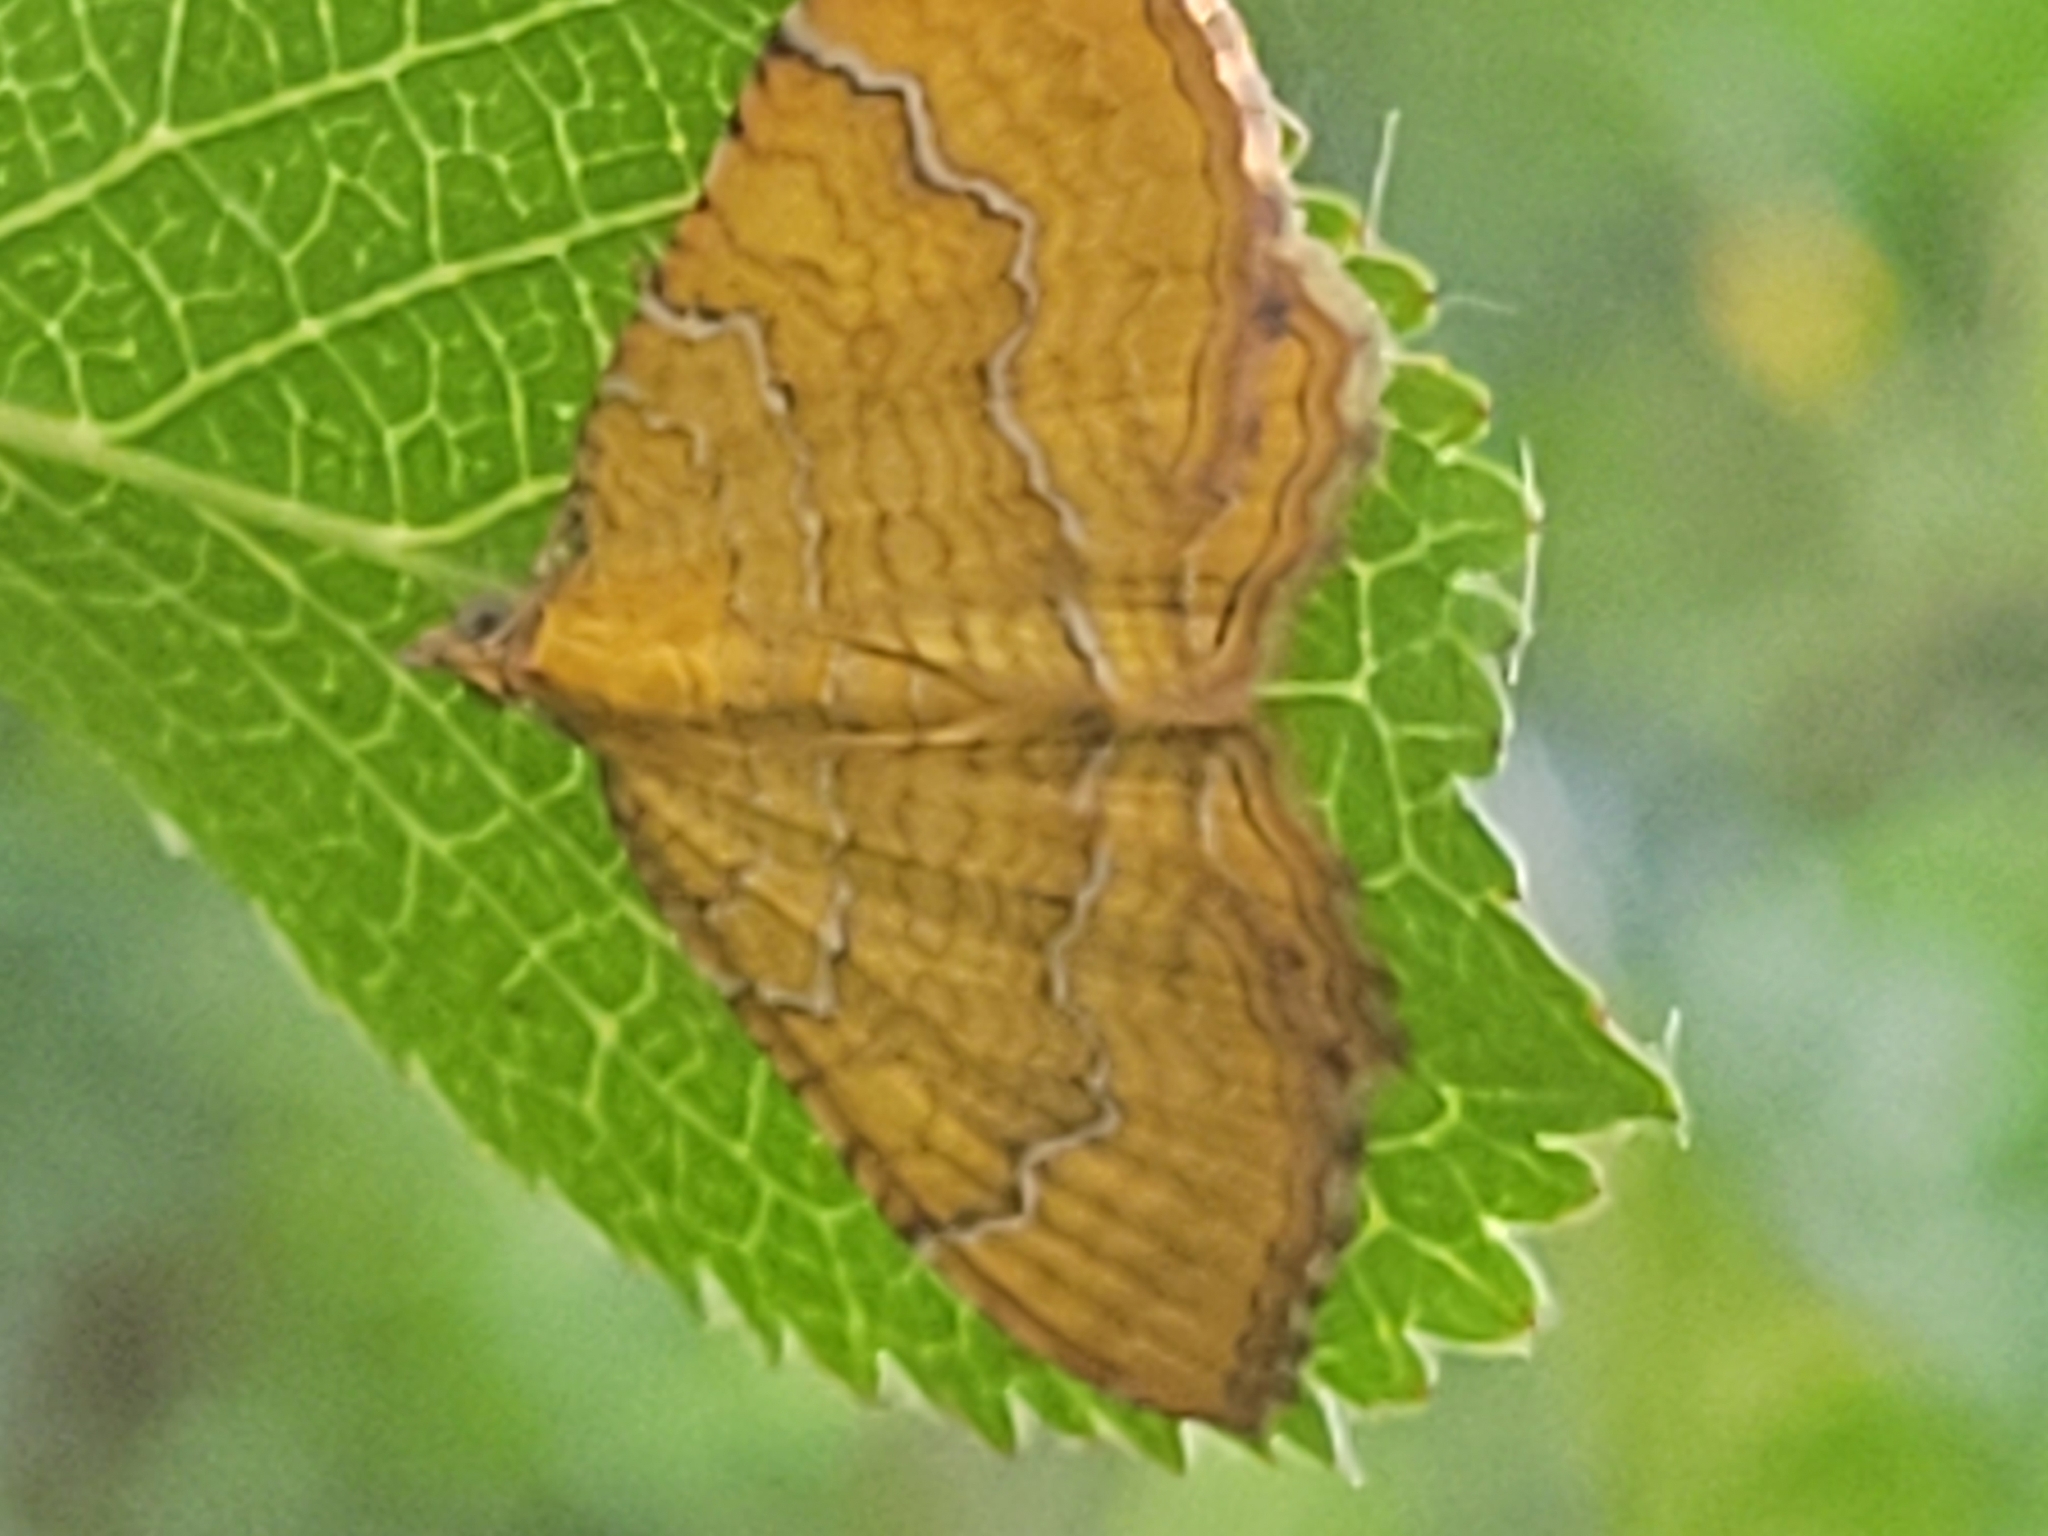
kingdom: Animalia
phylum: Arthropoda
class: Insecta
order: Lepidoptera
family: Geometridae
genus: Camptogramma
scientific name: Camptogramma bilineata
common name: Yellow shell
